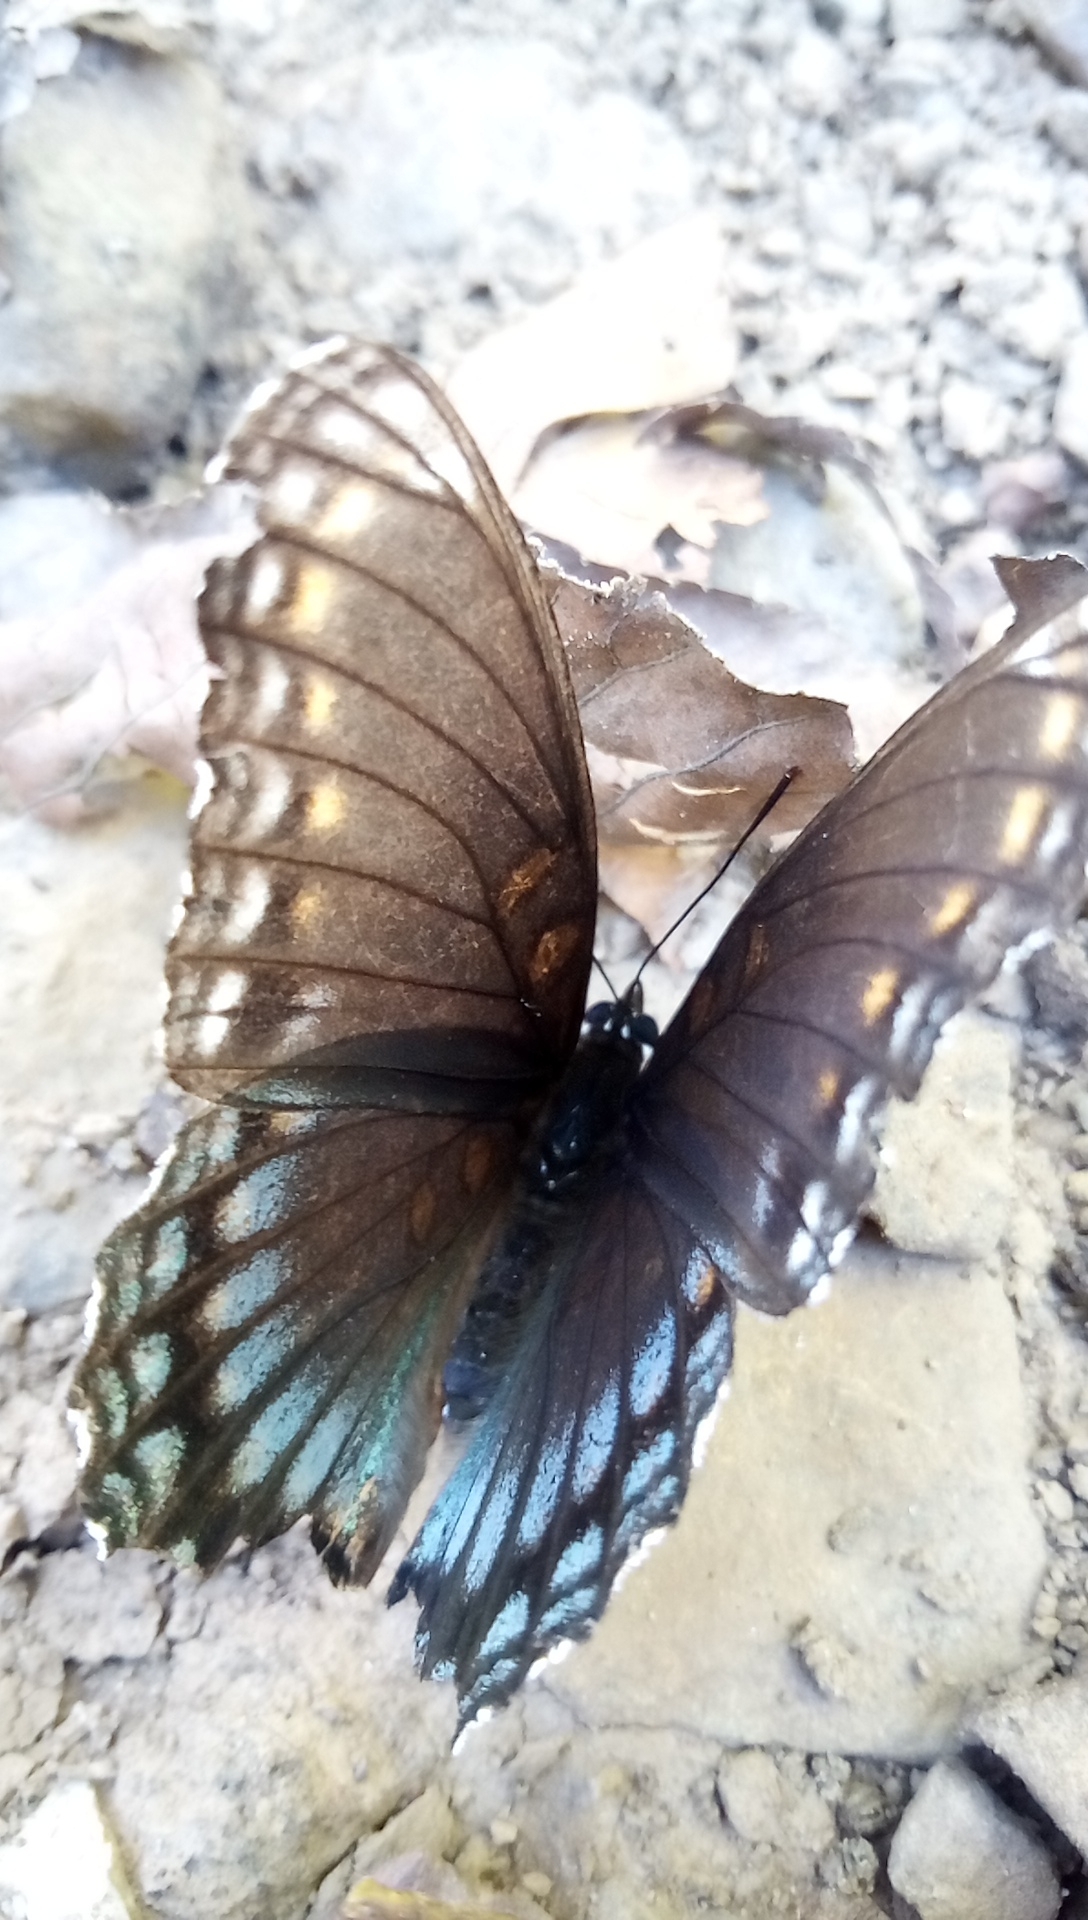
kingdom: Animalia
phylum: Arthropoda
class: Insecta
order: Lepidoptera
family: Nymphalidae
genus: Limenitis
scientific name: Limenitis astyanax
